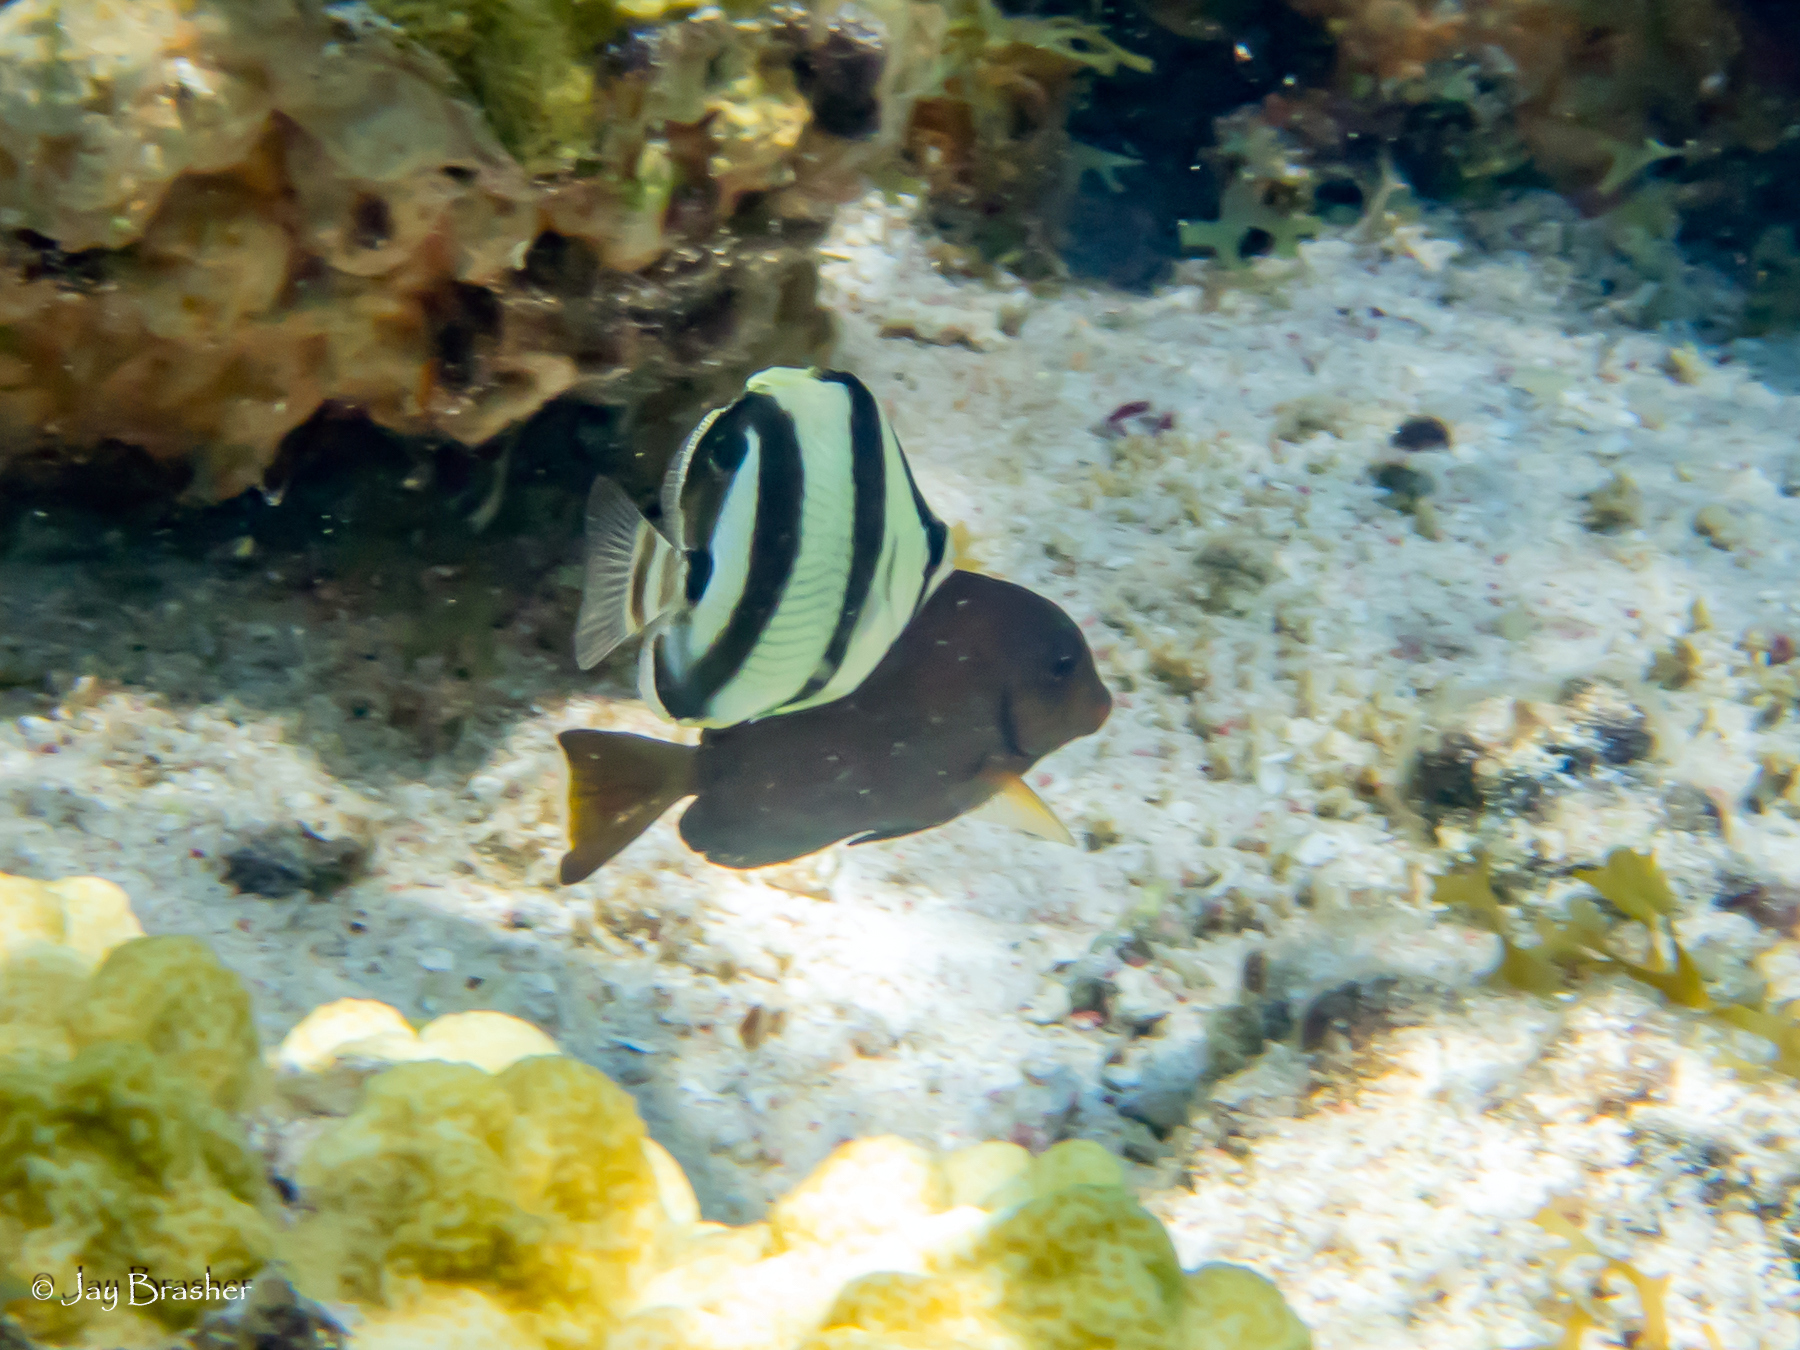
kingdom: Animalia
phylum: Chordata
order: Perciformes
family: Acanthuridae
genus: Acanthurus
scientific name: Acanthurus bahianus
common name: Ocean surgeon
